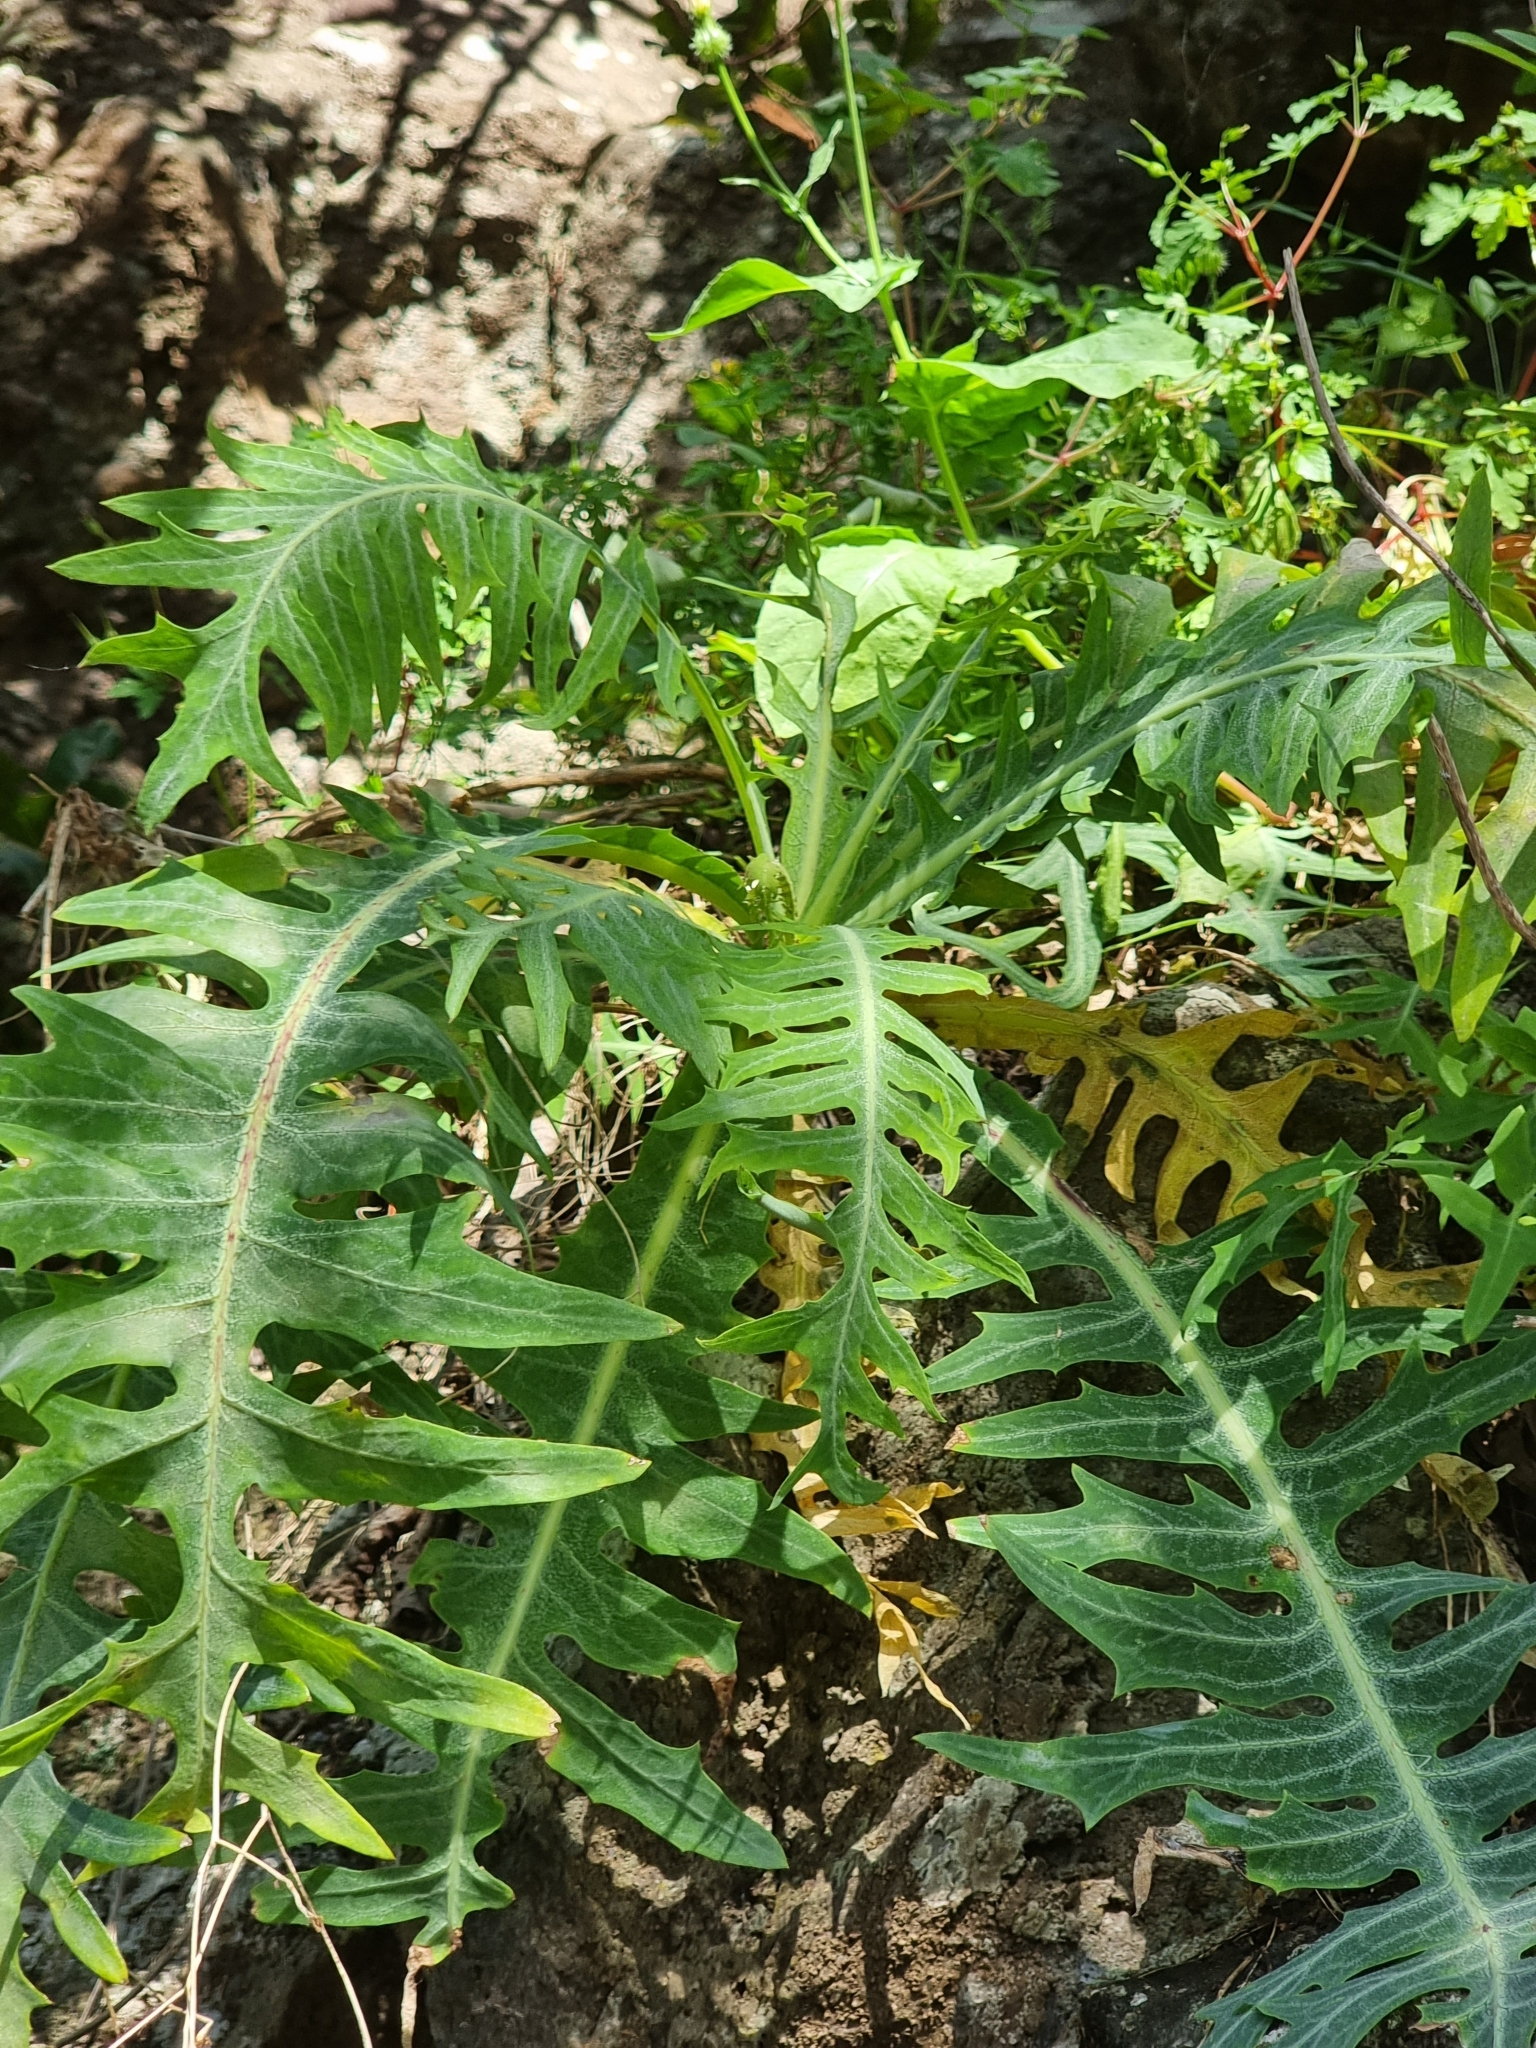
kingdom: Plantae
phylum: Tracheophyta
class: Magnoliopsida
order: Asterales
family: Asteraceae
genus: Sonchus
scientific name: Sonchus ustulatus
